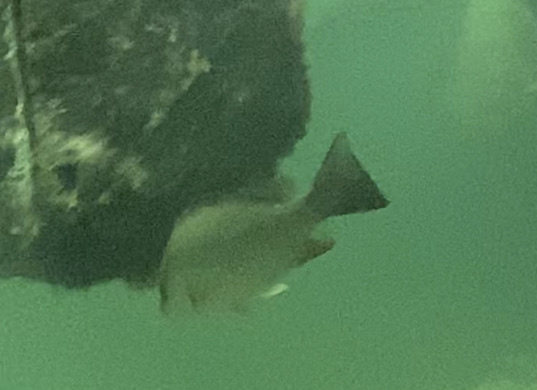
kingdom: Animalia
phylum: Chordata
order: Perciformes
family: Lutjanidae
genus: Lutjanus
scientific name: Lutjanus griseus
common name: Gray snapper
